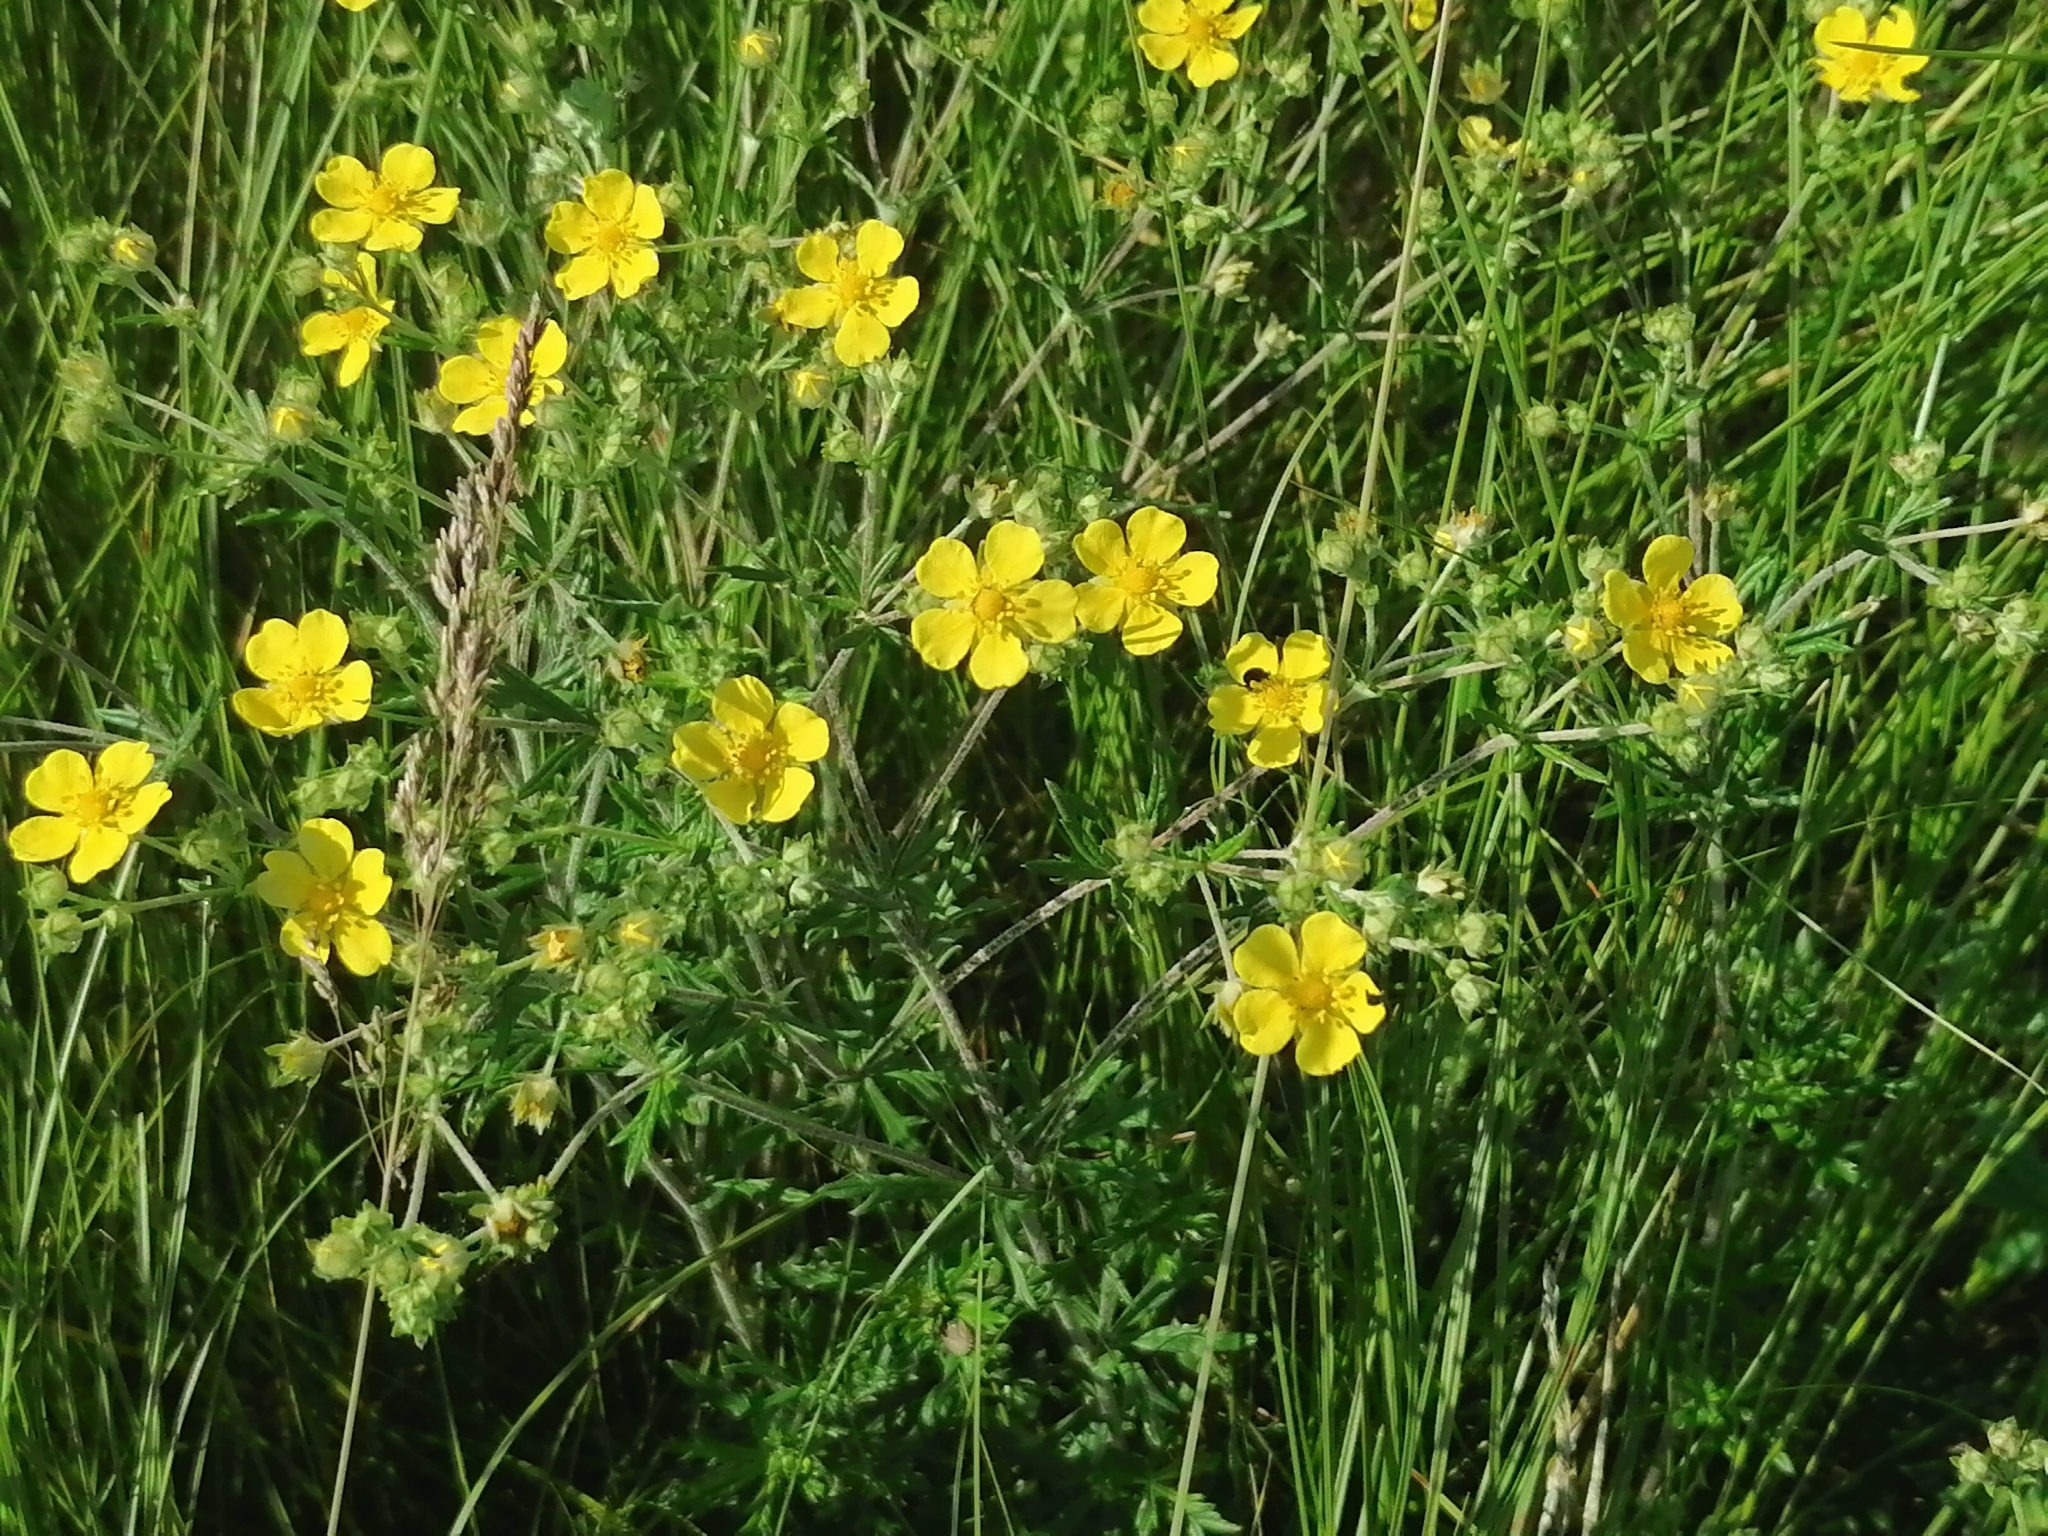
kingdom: Plantae
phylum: Tracheophyta
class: Magnoliopsida
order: Rosales
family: Rosaceae
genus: Potentilla
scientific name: Potentilla argentea
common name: Hoary cinquefoil
